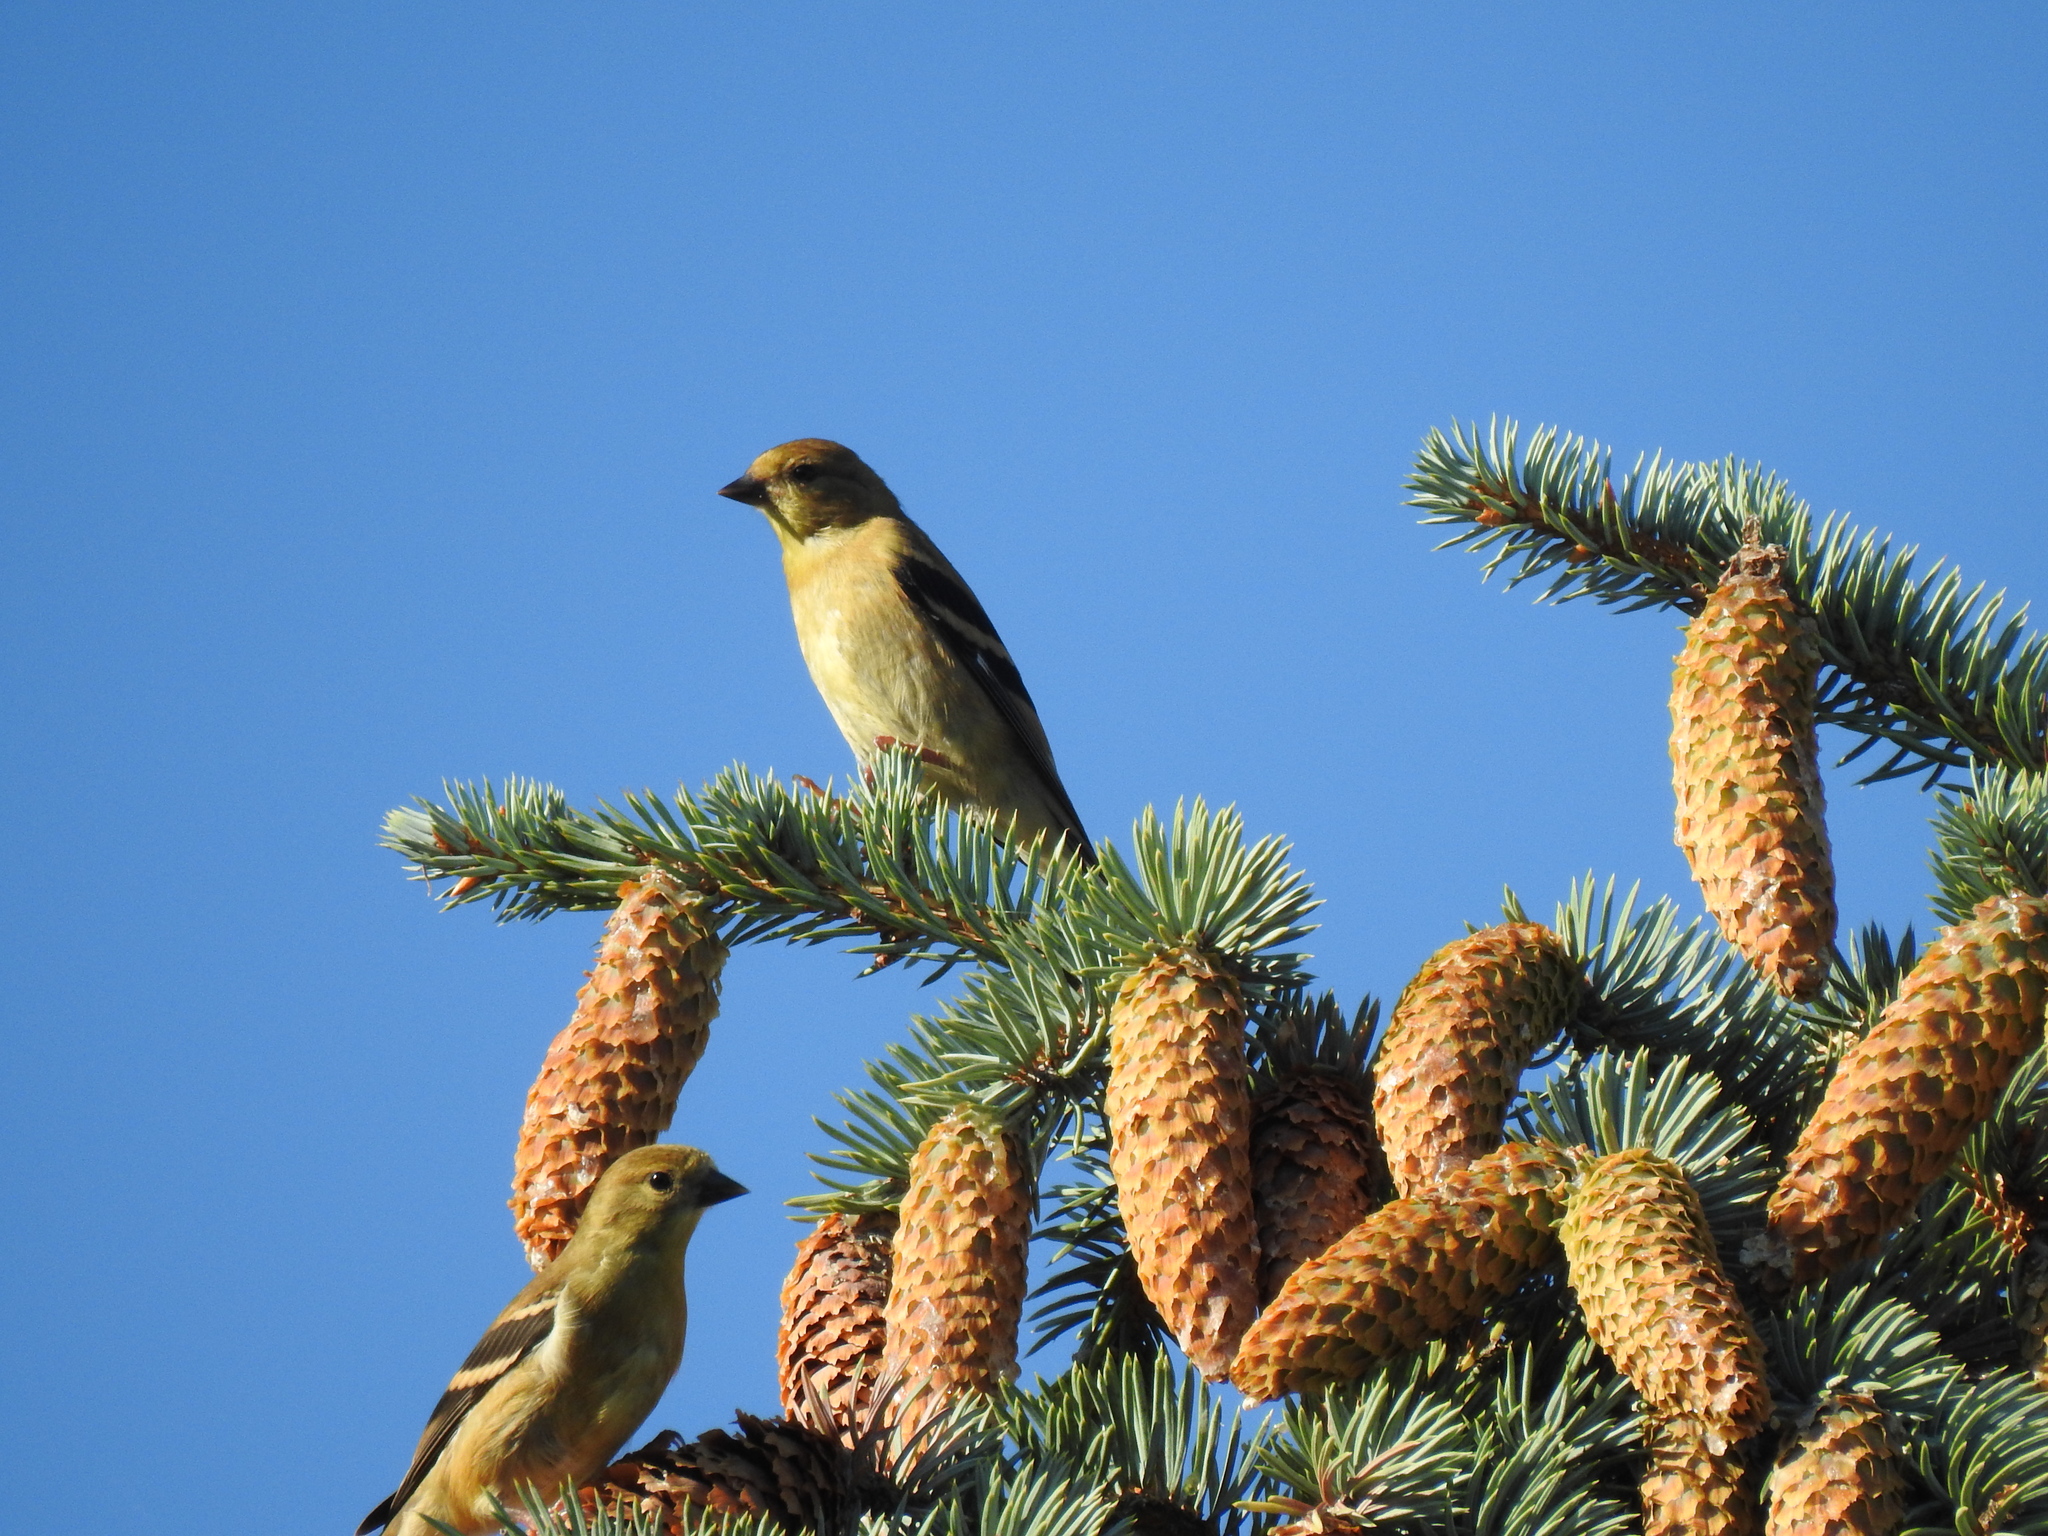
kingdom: Animalia
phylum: Chordata
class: Aves
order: Passeriformes
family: Fringillidae
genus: Spinus
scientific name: Spinus tristis
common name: American goldfinch
